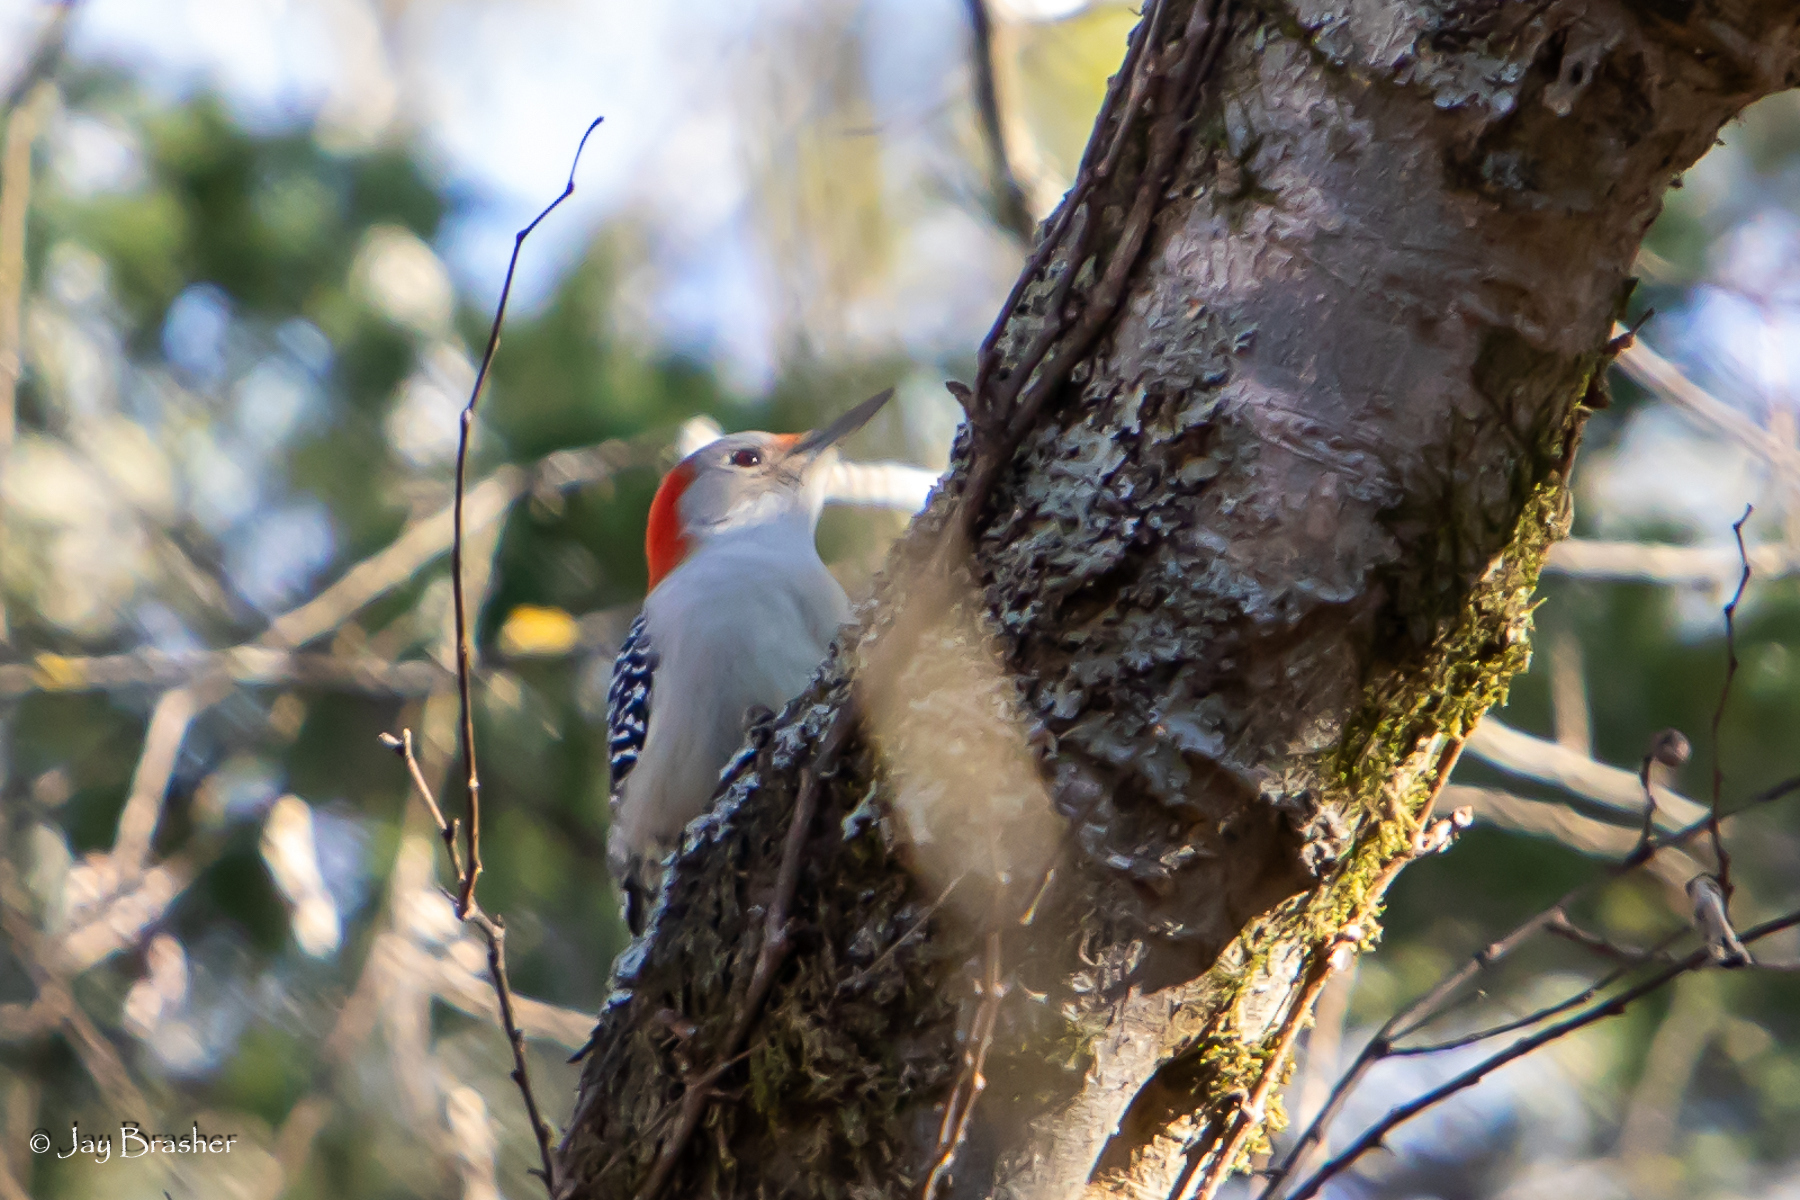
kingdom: Animalia
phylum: Chordata
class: Aves
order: Piciformes
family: Picidae
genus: Melanerpes
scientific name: Melanerpes carolinus
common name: Red-bellied woodpecker
